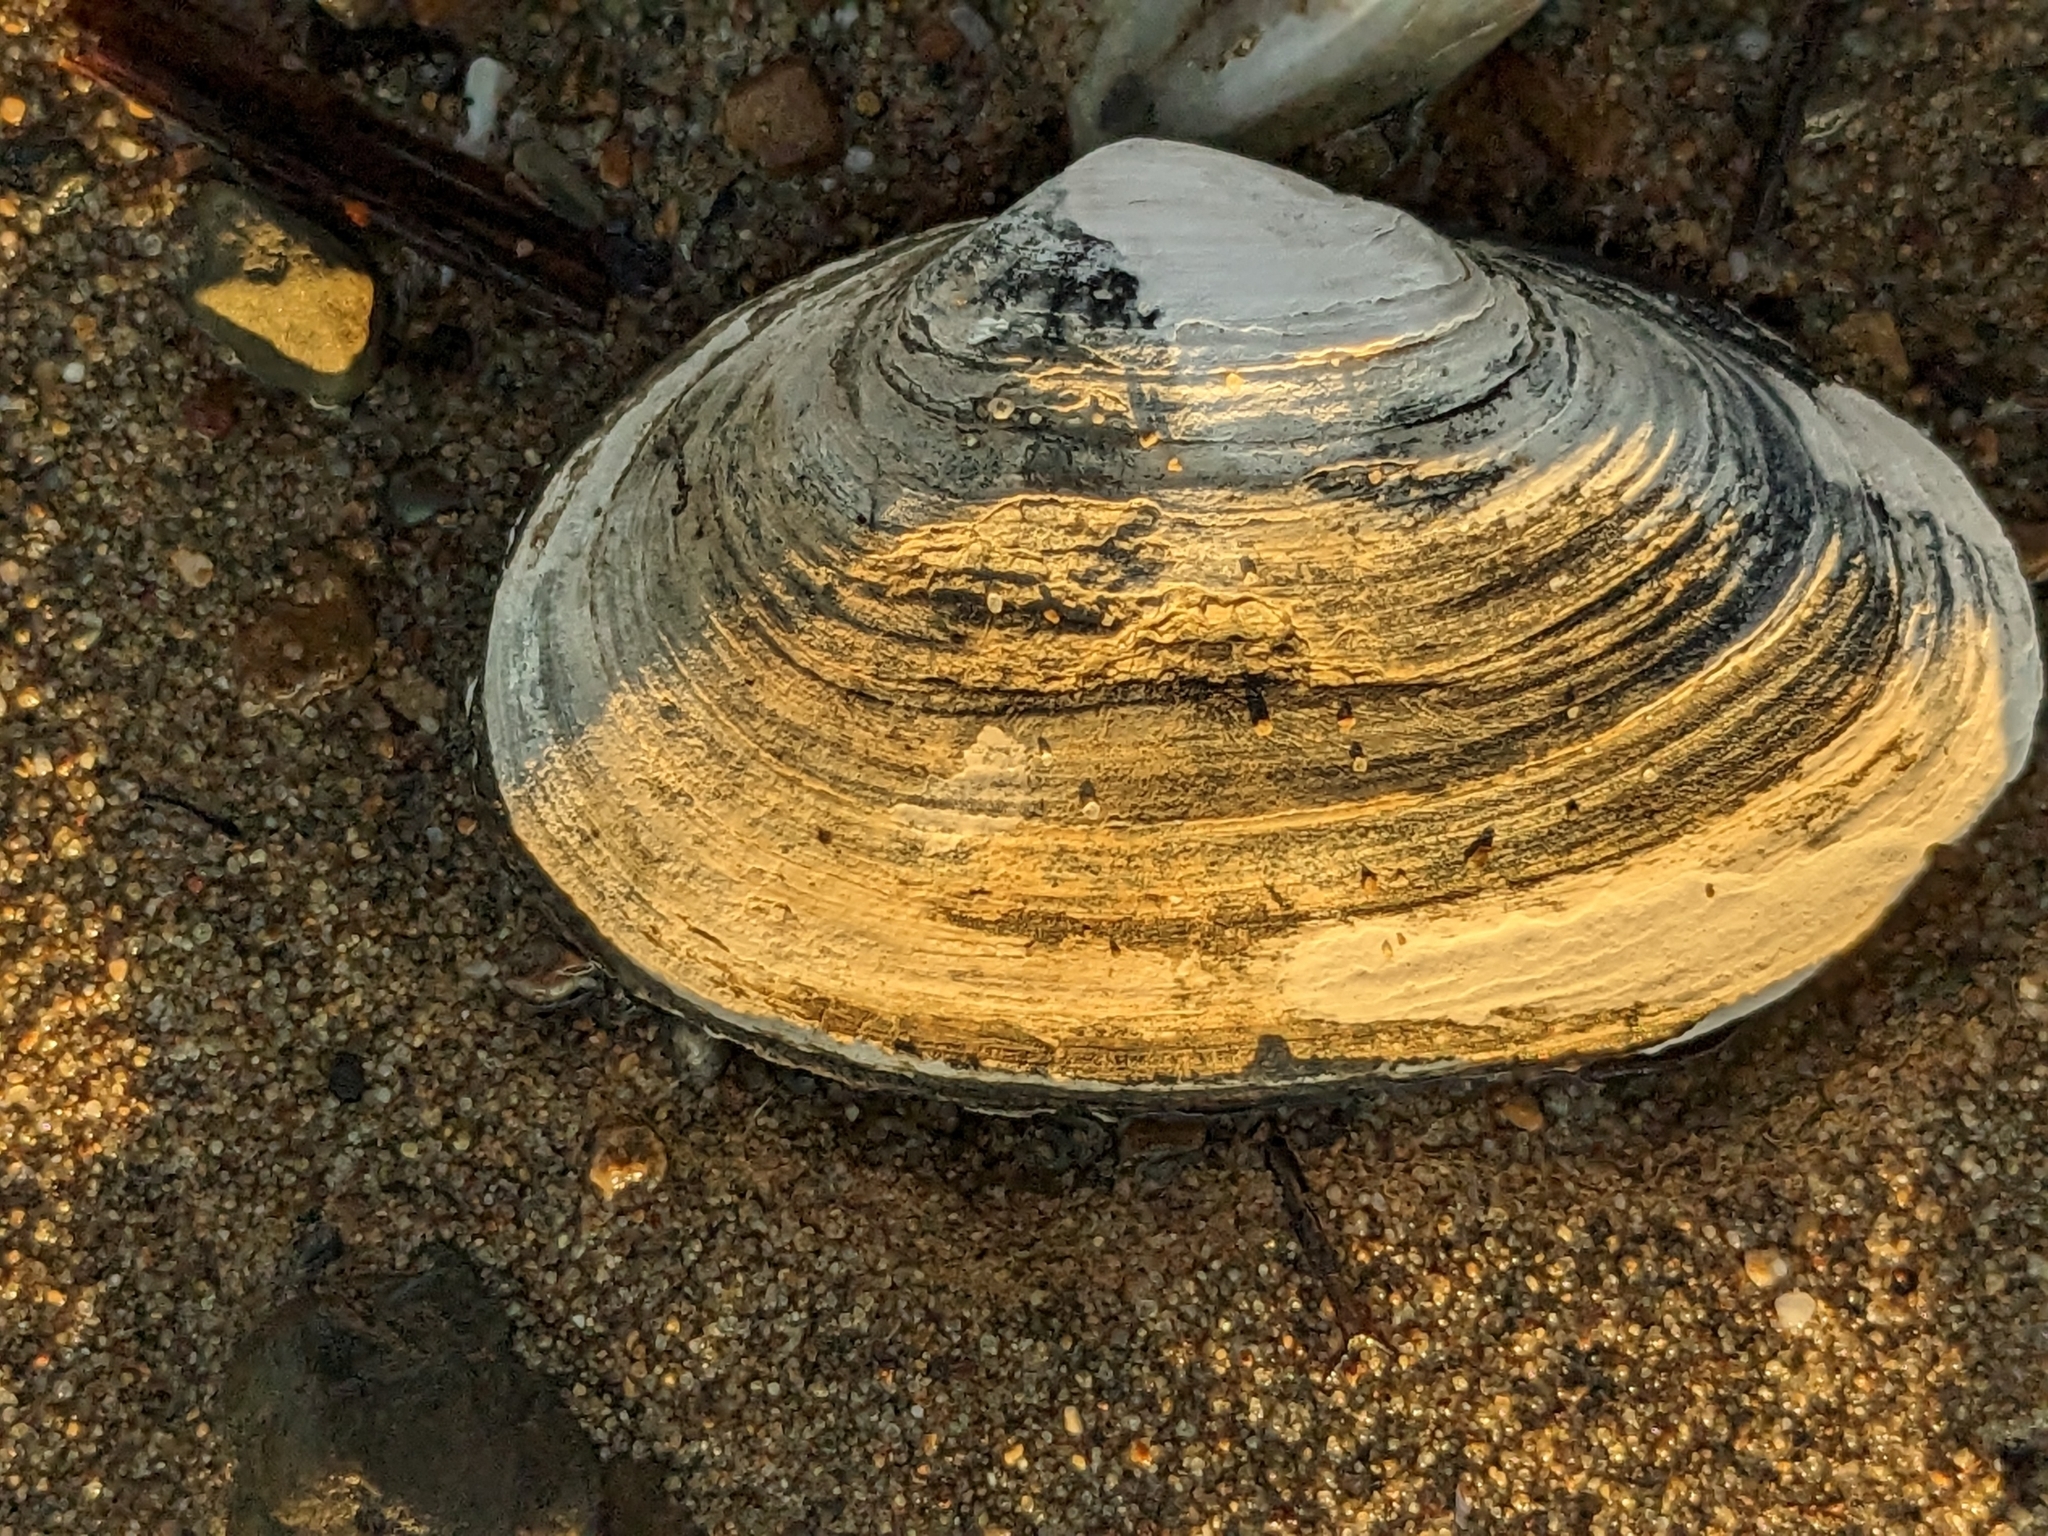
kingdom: Animalia
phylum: Mollusca
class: Bivalvia
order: Myida
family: Myidae
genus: Mya
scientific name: Mya arenaria
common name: Soft-shelled clam
